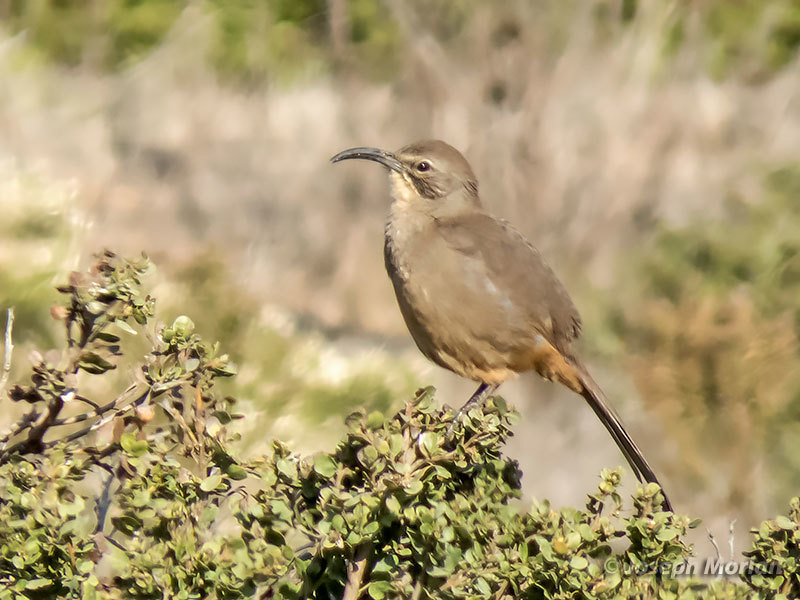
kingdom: Animalia
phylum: Chordata
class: Aves
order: Passeriformes
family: Mimidae
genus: Toxostoma
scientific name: Toxostoma redivivum
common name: California thrasher
